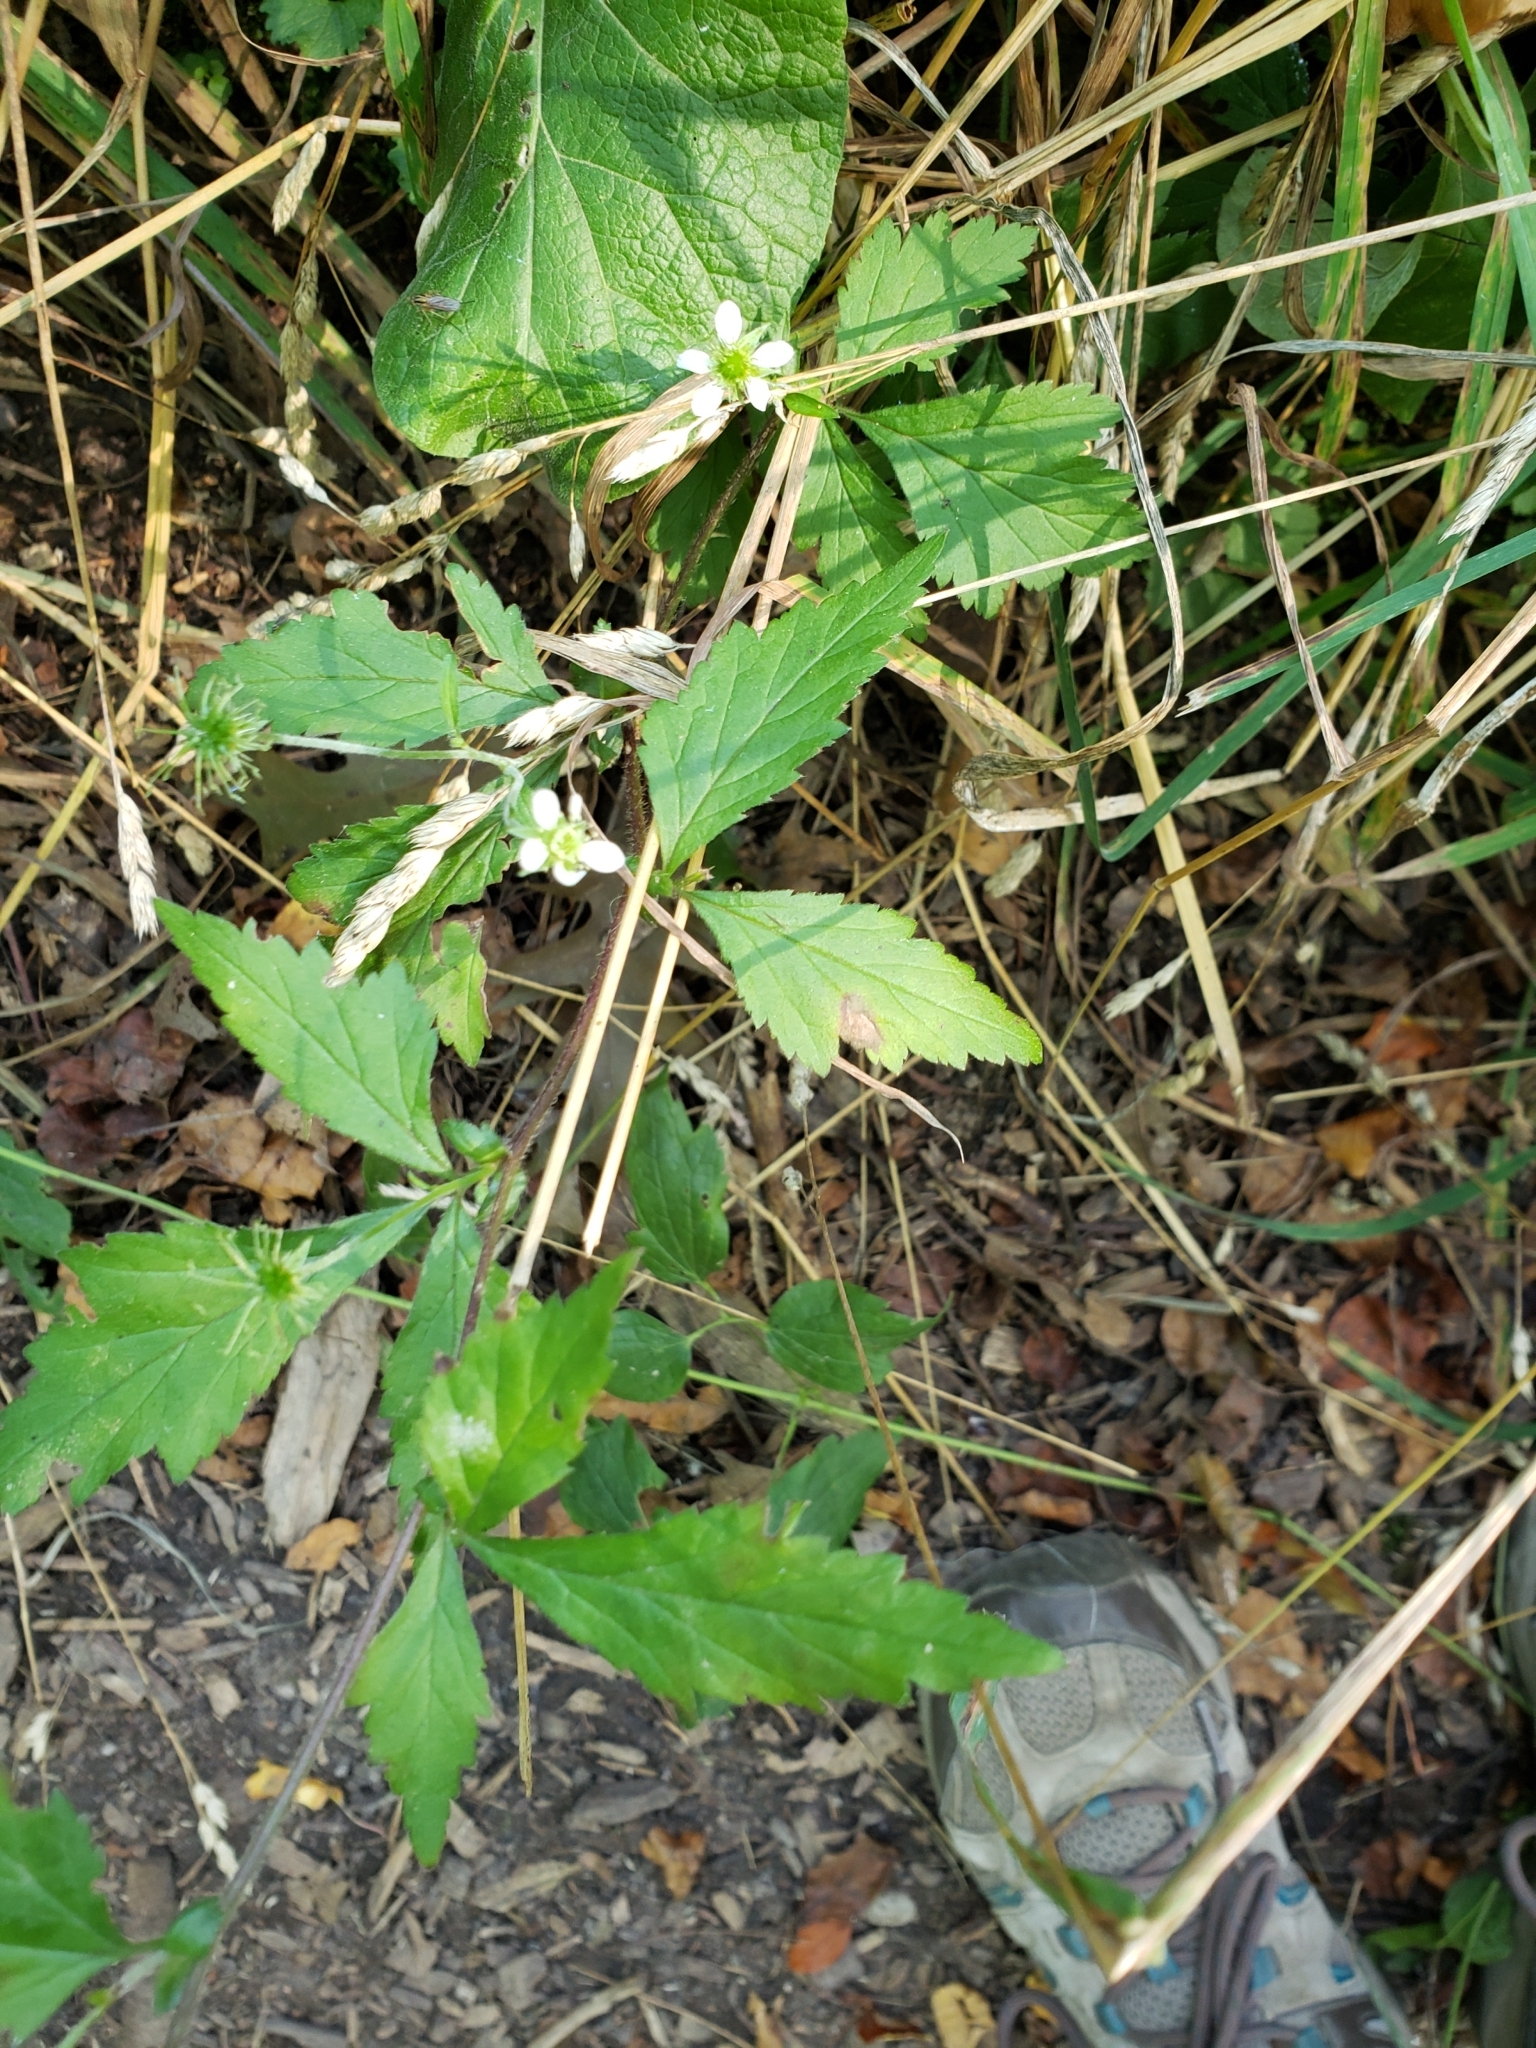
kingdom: Plantae
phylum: Tracheophyta
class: Magnoliopsida
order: Rosales
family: Rosaceae
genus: Geum
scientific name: Geum canadense
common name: White avens
